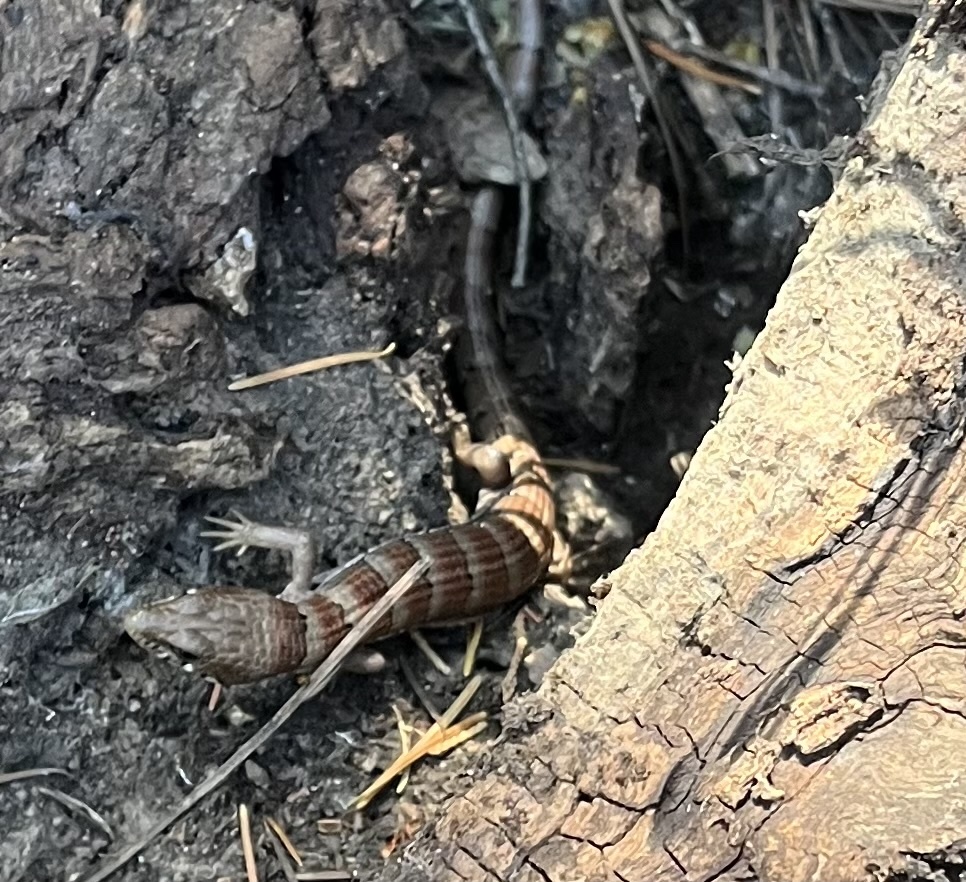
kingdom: Animalia
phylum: Chordata
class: Squamata
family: Anguidae
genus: Elgaria
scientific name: Elgaria kingii
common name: Madrean alligator lizard
